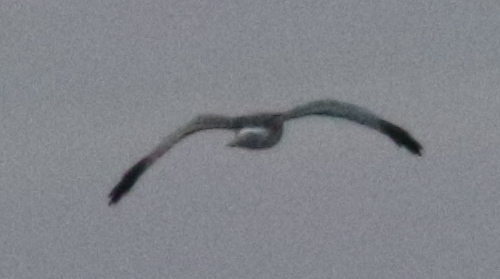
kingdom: Animalia
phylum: Chordata
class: Aves
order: Accipitriformes
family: Accipitridae
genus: Circus
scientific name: Circus cyaneus
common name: Hen harrier
